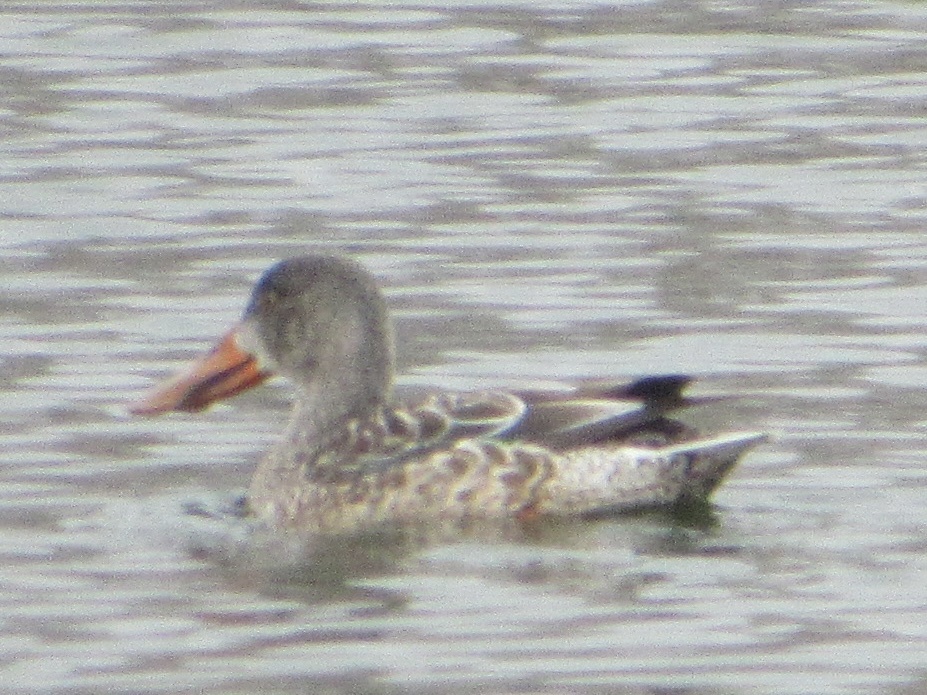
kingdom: Animalia
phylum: Chordata
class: Aves
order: Anseriformes
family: Anatidae
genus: Spatula
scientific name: Spatula clypeata
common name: Northern shoveler
